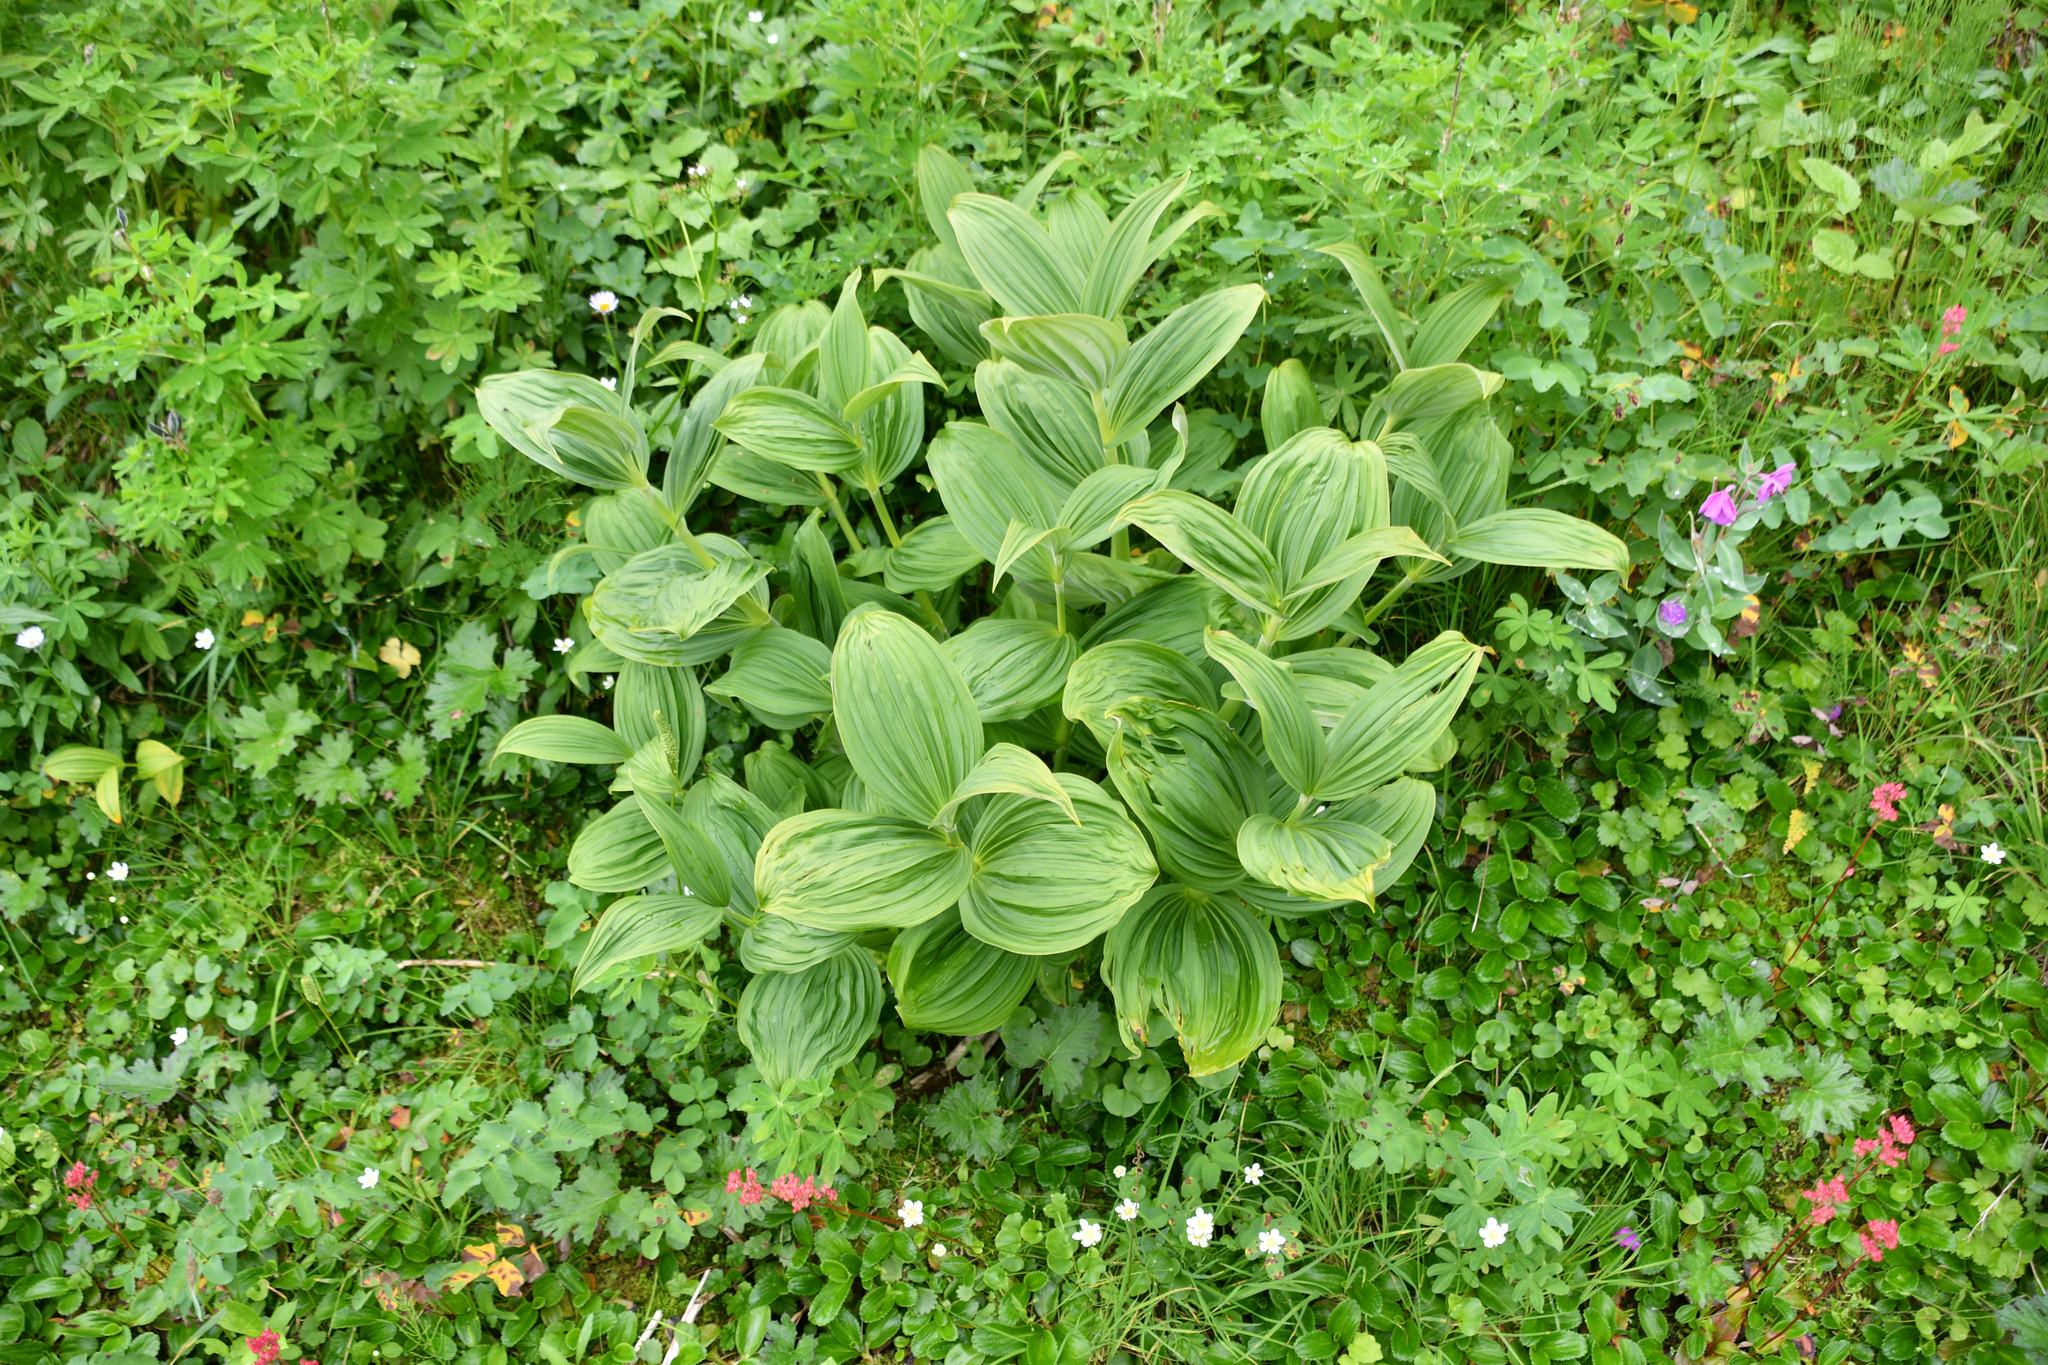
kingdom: Plantae
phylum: Tracheophyta
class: Liliopsida
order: Liliales
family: Melanthiaceae
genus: Veratrum
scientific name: Veratrum viride
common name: American false hellebore
